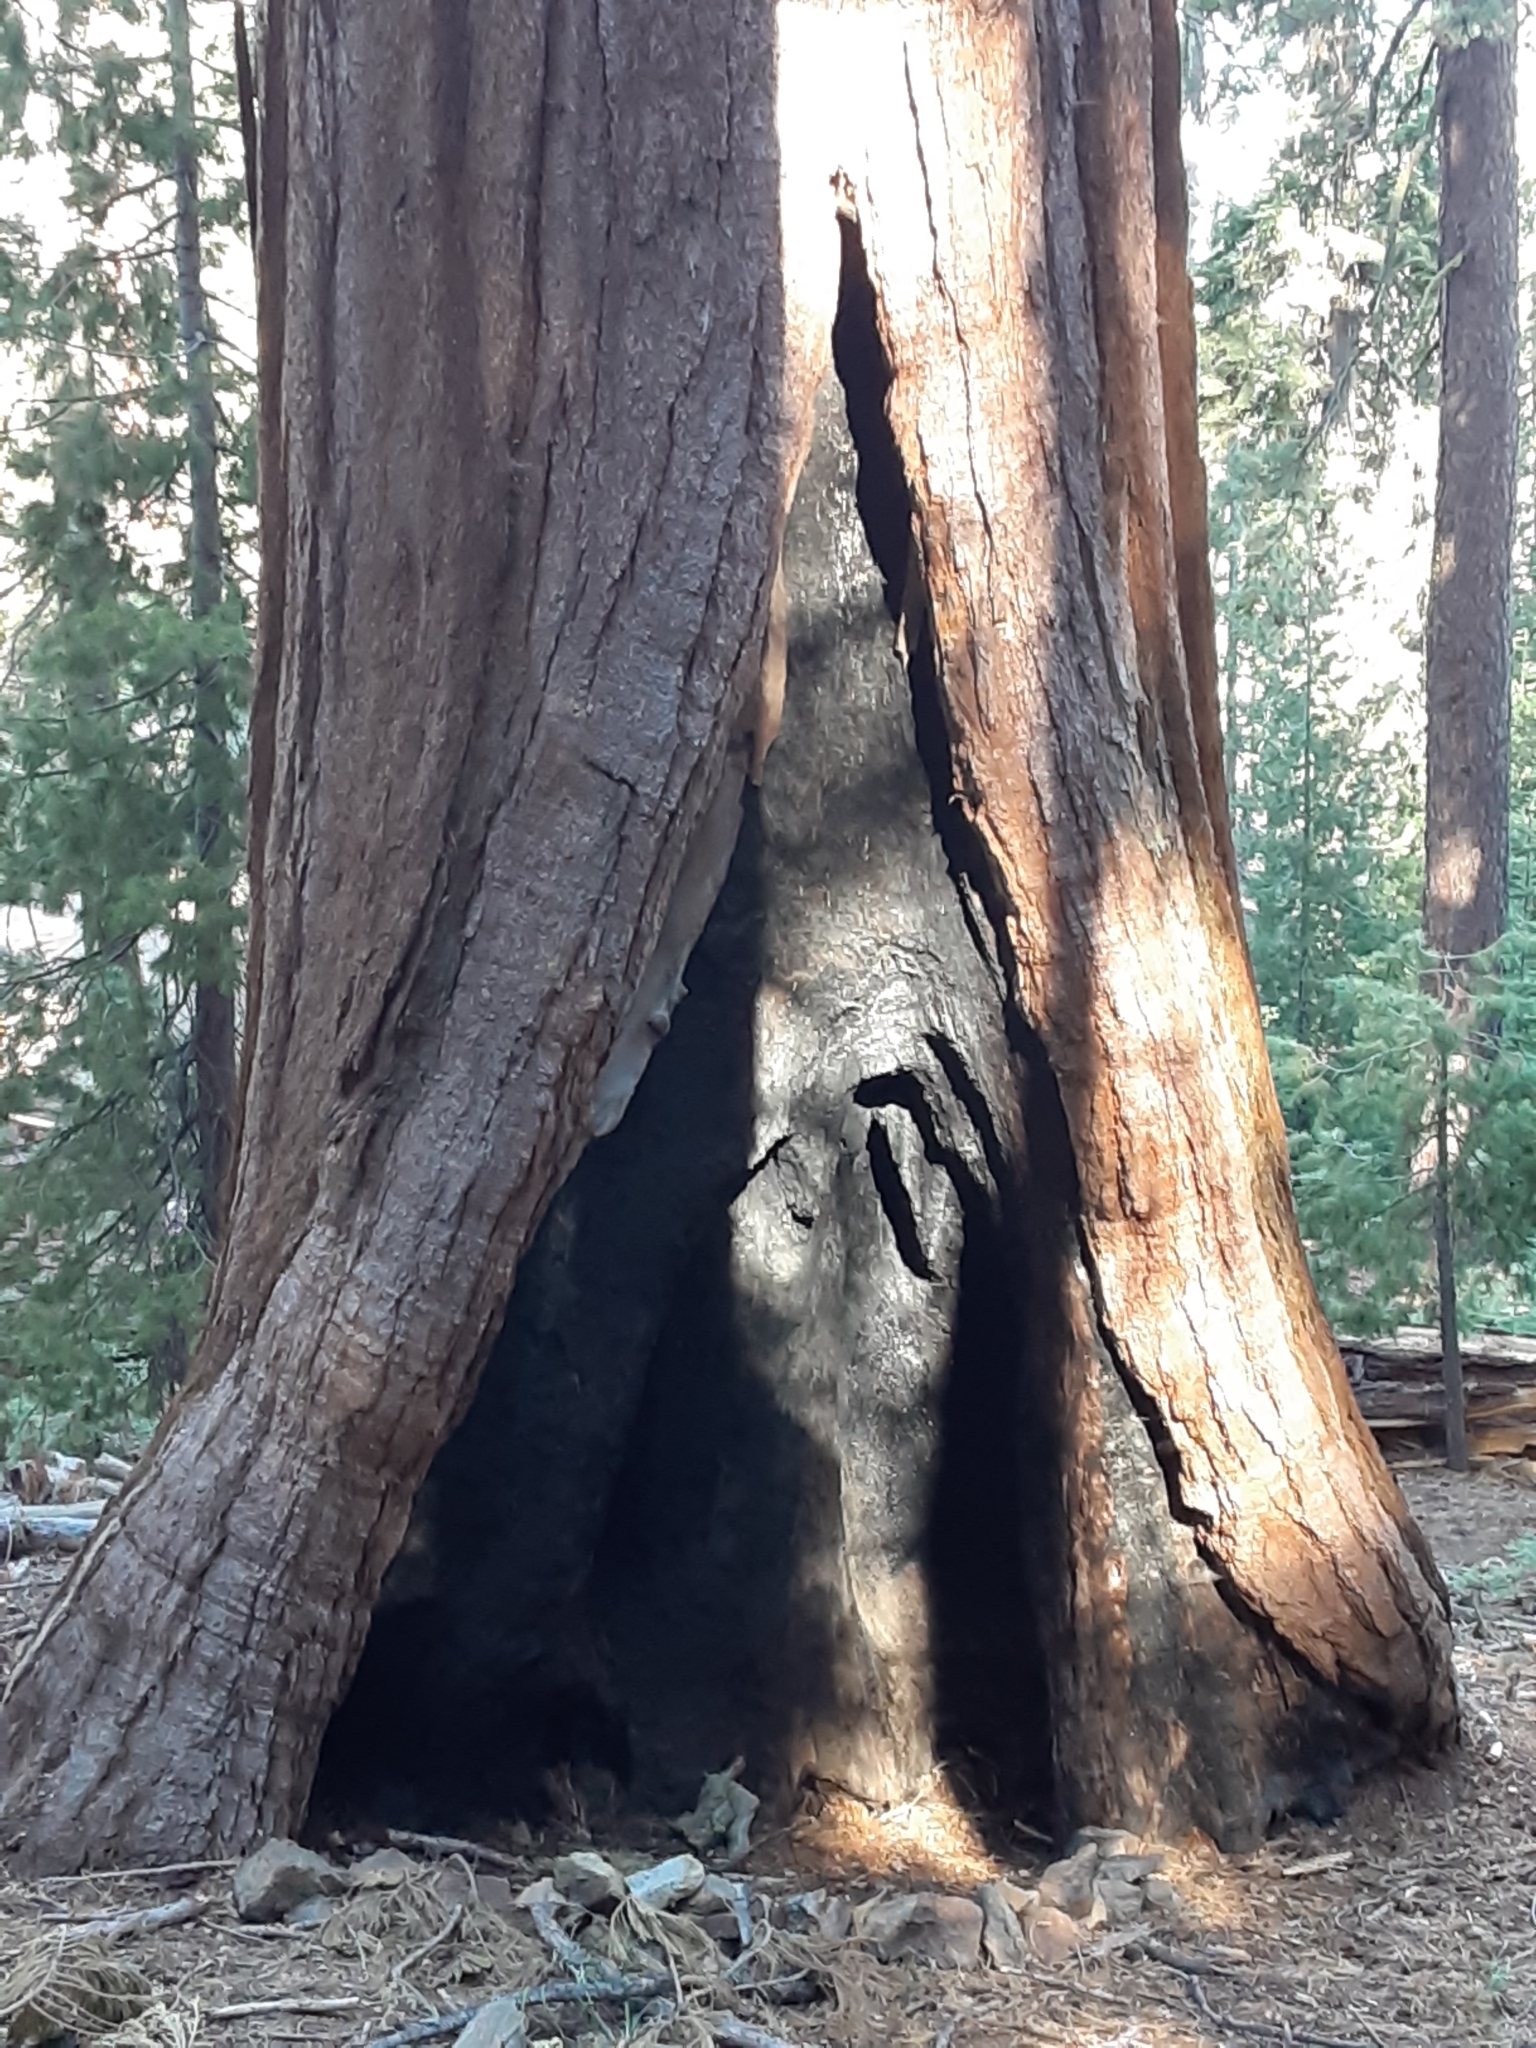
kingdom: Plantae
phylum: Tracheophyta
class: Pinopsida
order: Pinales
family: Cupressaceae
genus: Sequoiadendron
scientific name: Sequoiadendron giganteum
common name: Wellingtonia
